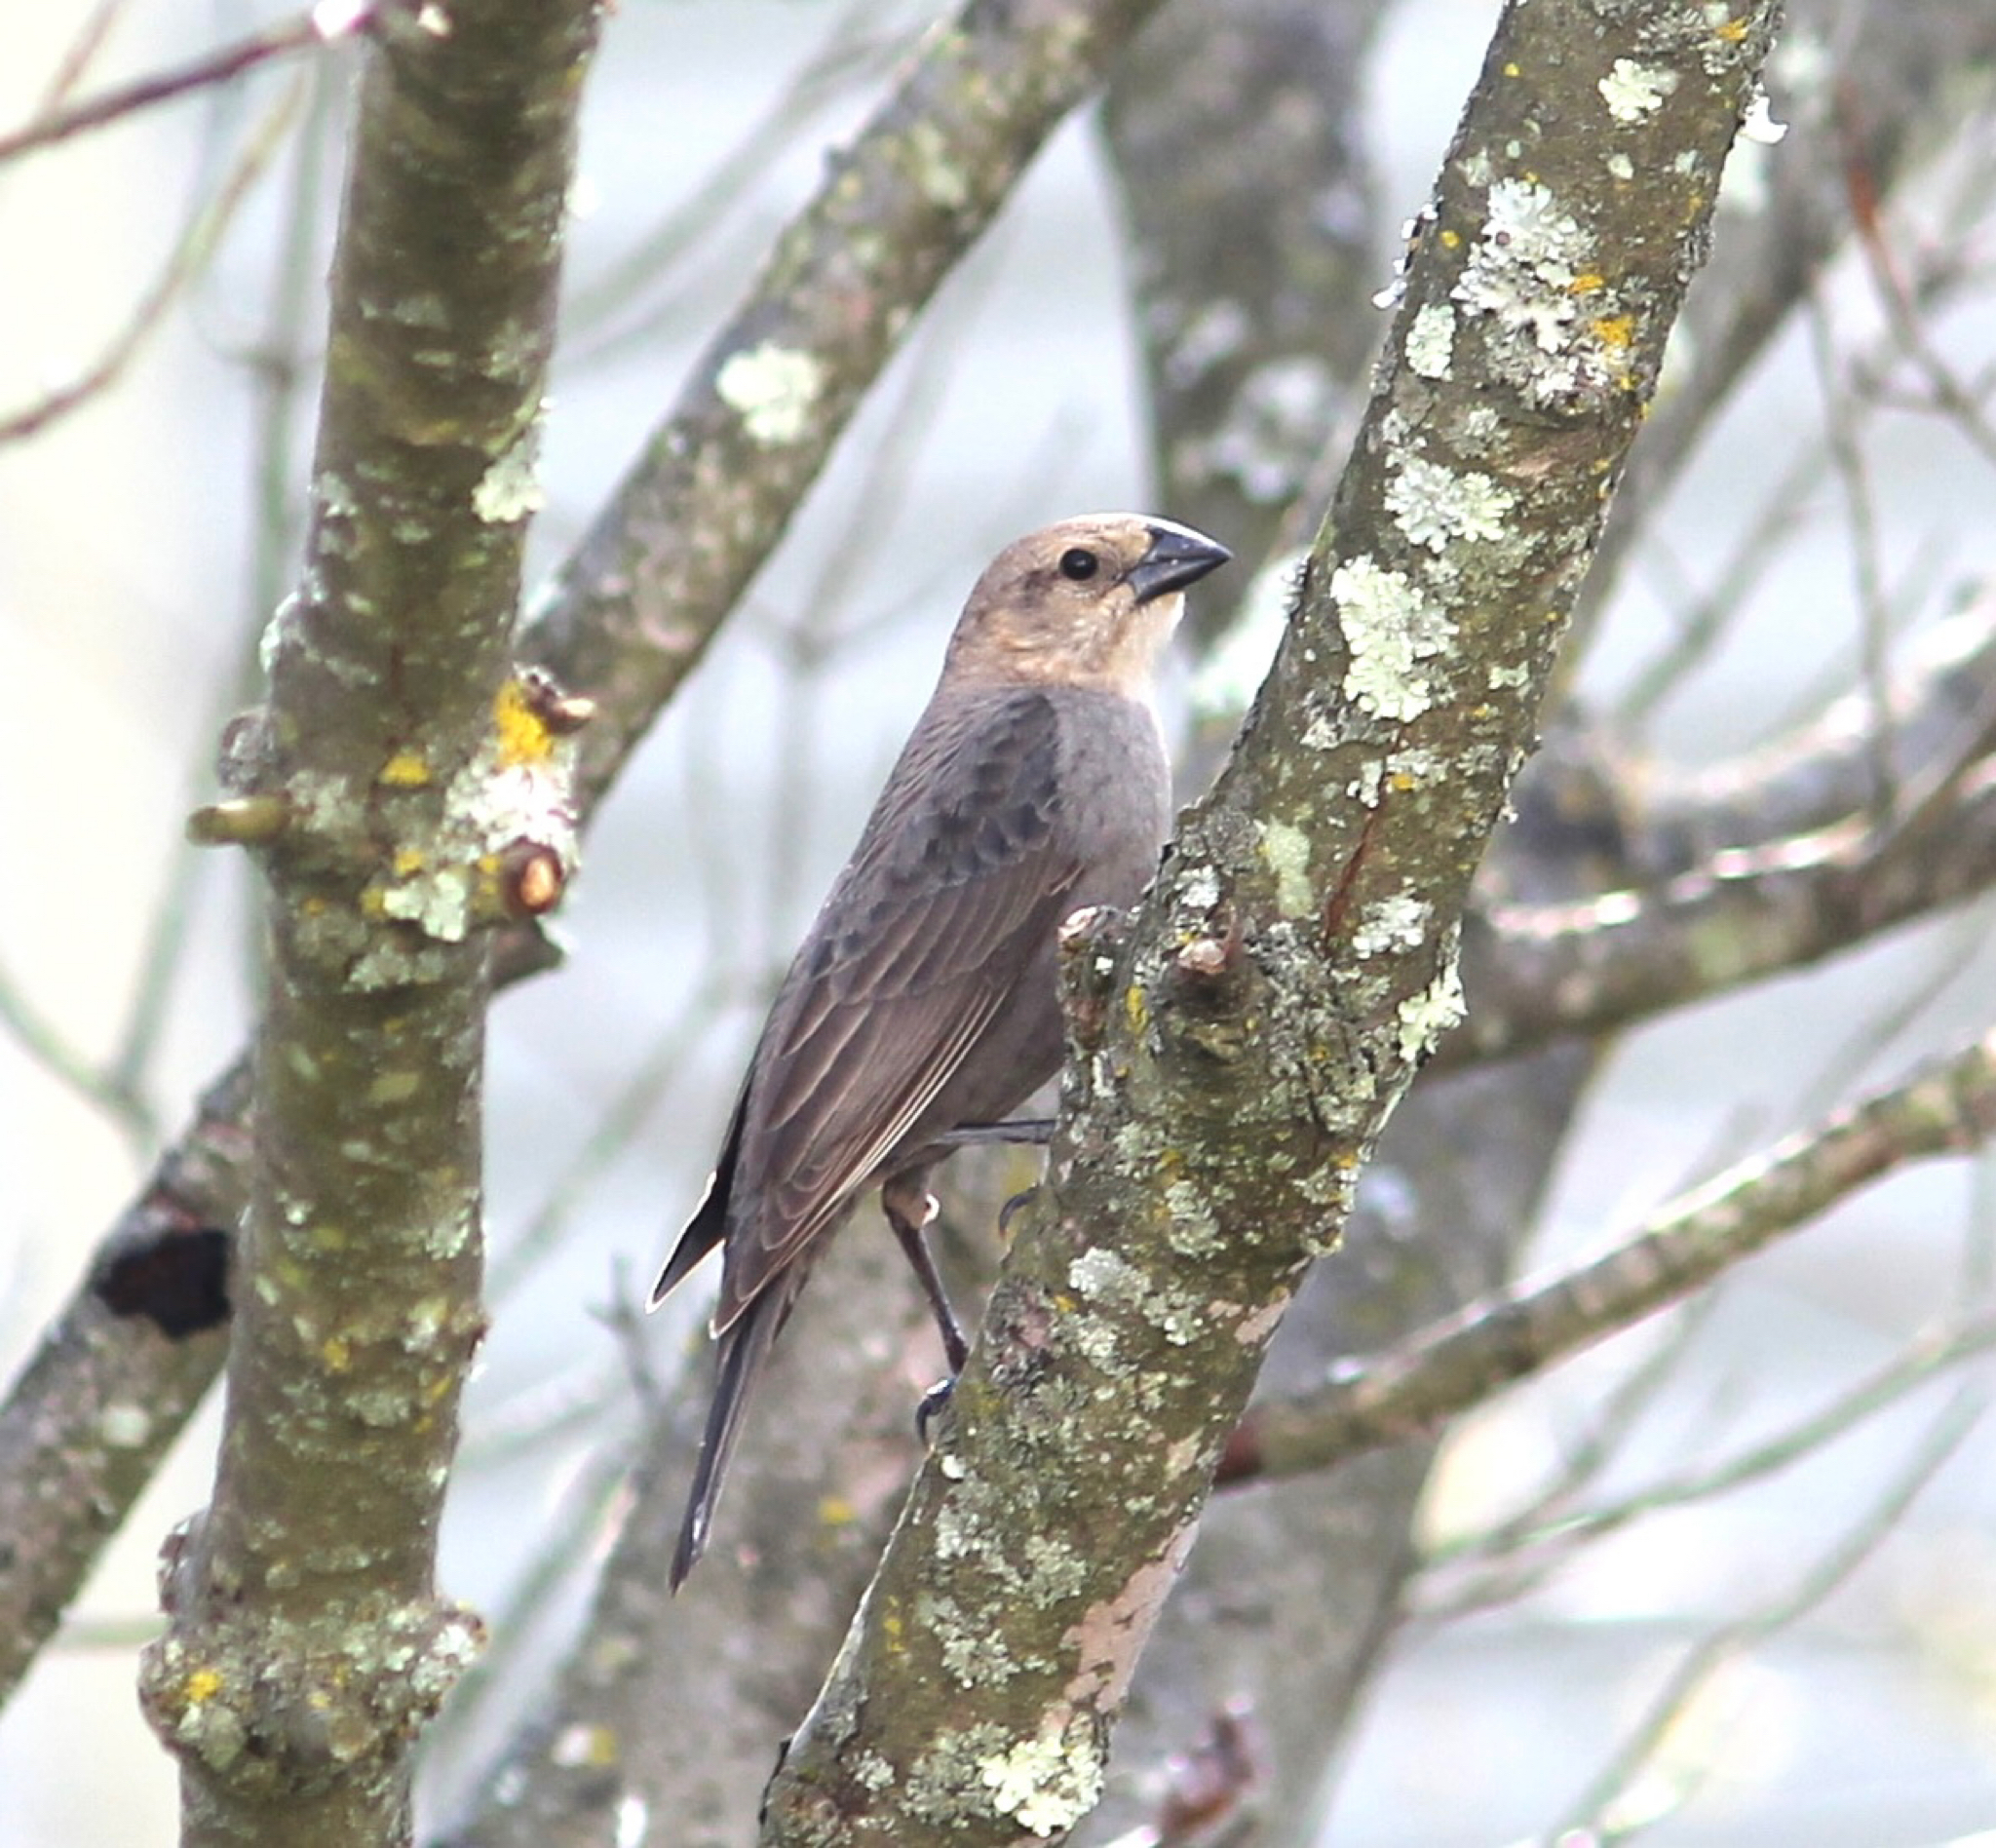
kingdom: Animalia
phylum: Chordata
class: Aves
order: Passeriformes
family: Icteridae
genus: Molothrus
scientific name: Molothrus ater
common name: Brown-headed cowbird
